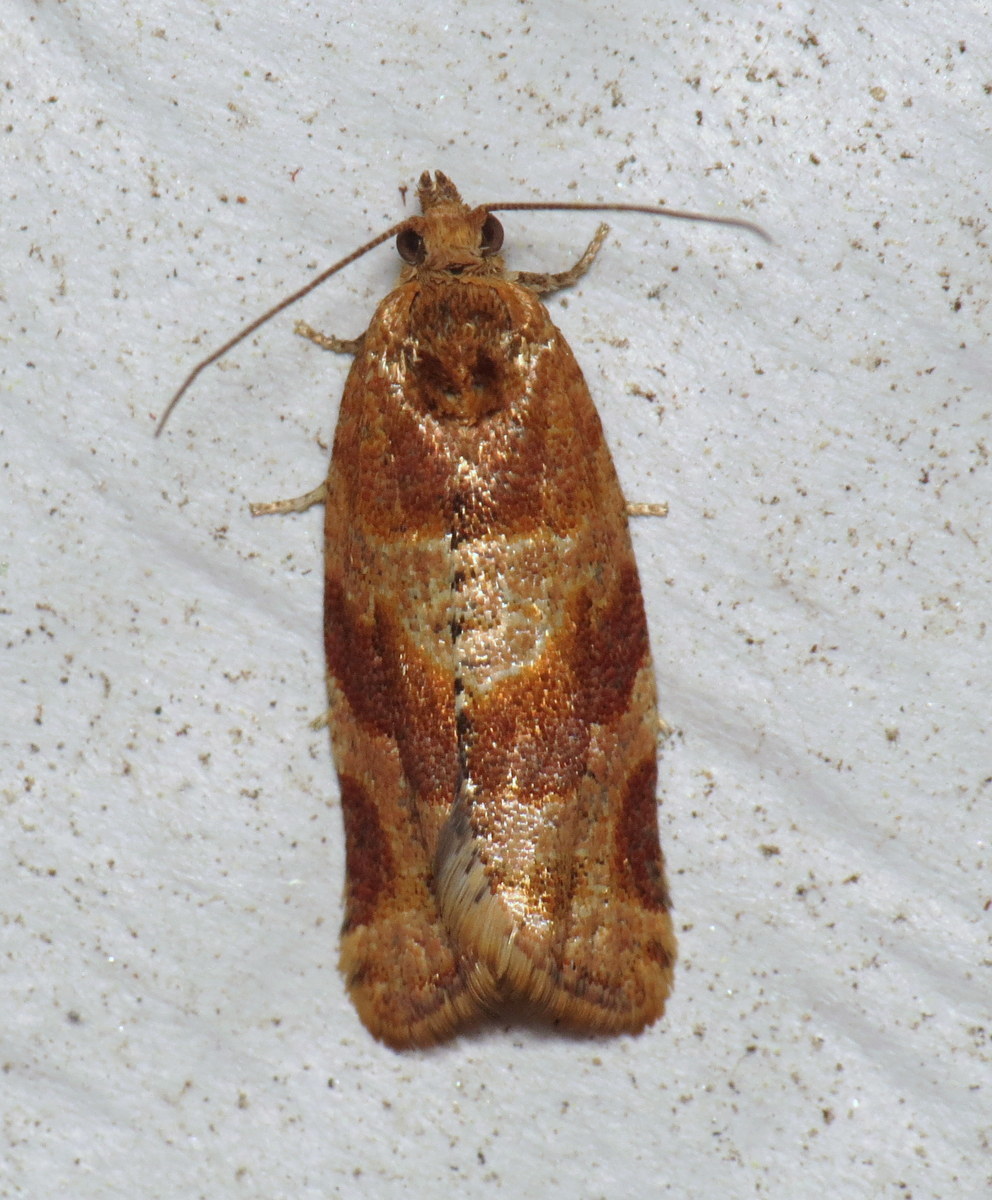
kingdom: Animalia
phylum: Arthropoda
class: Insecta
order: Lepidoptera
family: Tortricidae
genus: Argyrotaenia
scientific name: Argyrotaenia pinatubana
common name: Pine tube moth
